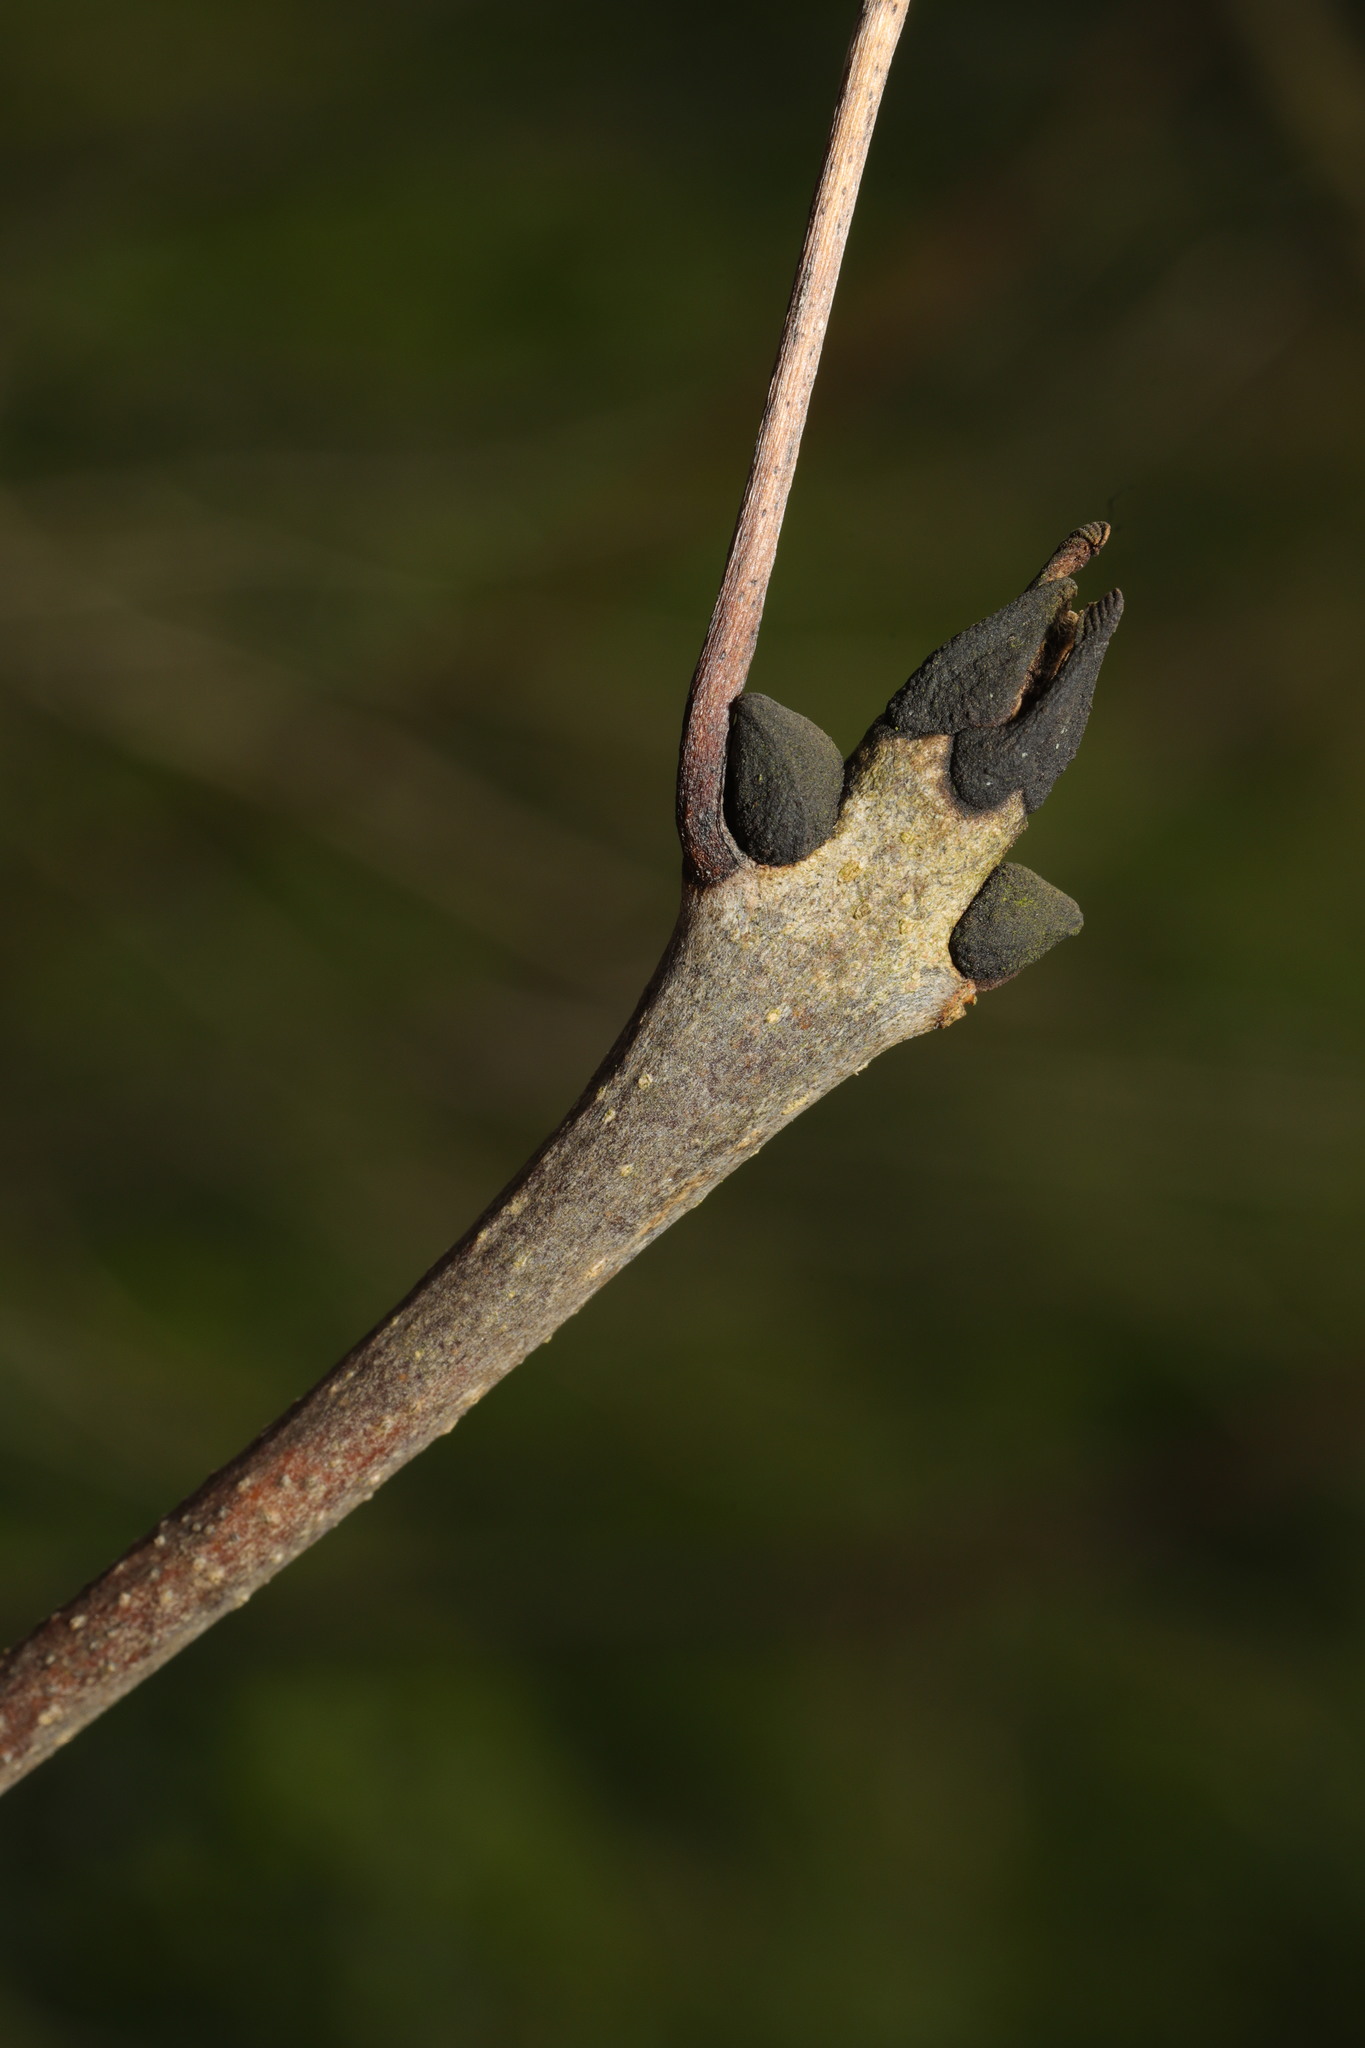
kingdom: Plantae
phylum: Tracheophyta
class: Magnoliopsida
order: Lamiales
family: Oleaceae
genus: Fraxinus
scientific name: Fraxinus excelsior
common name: European ash
